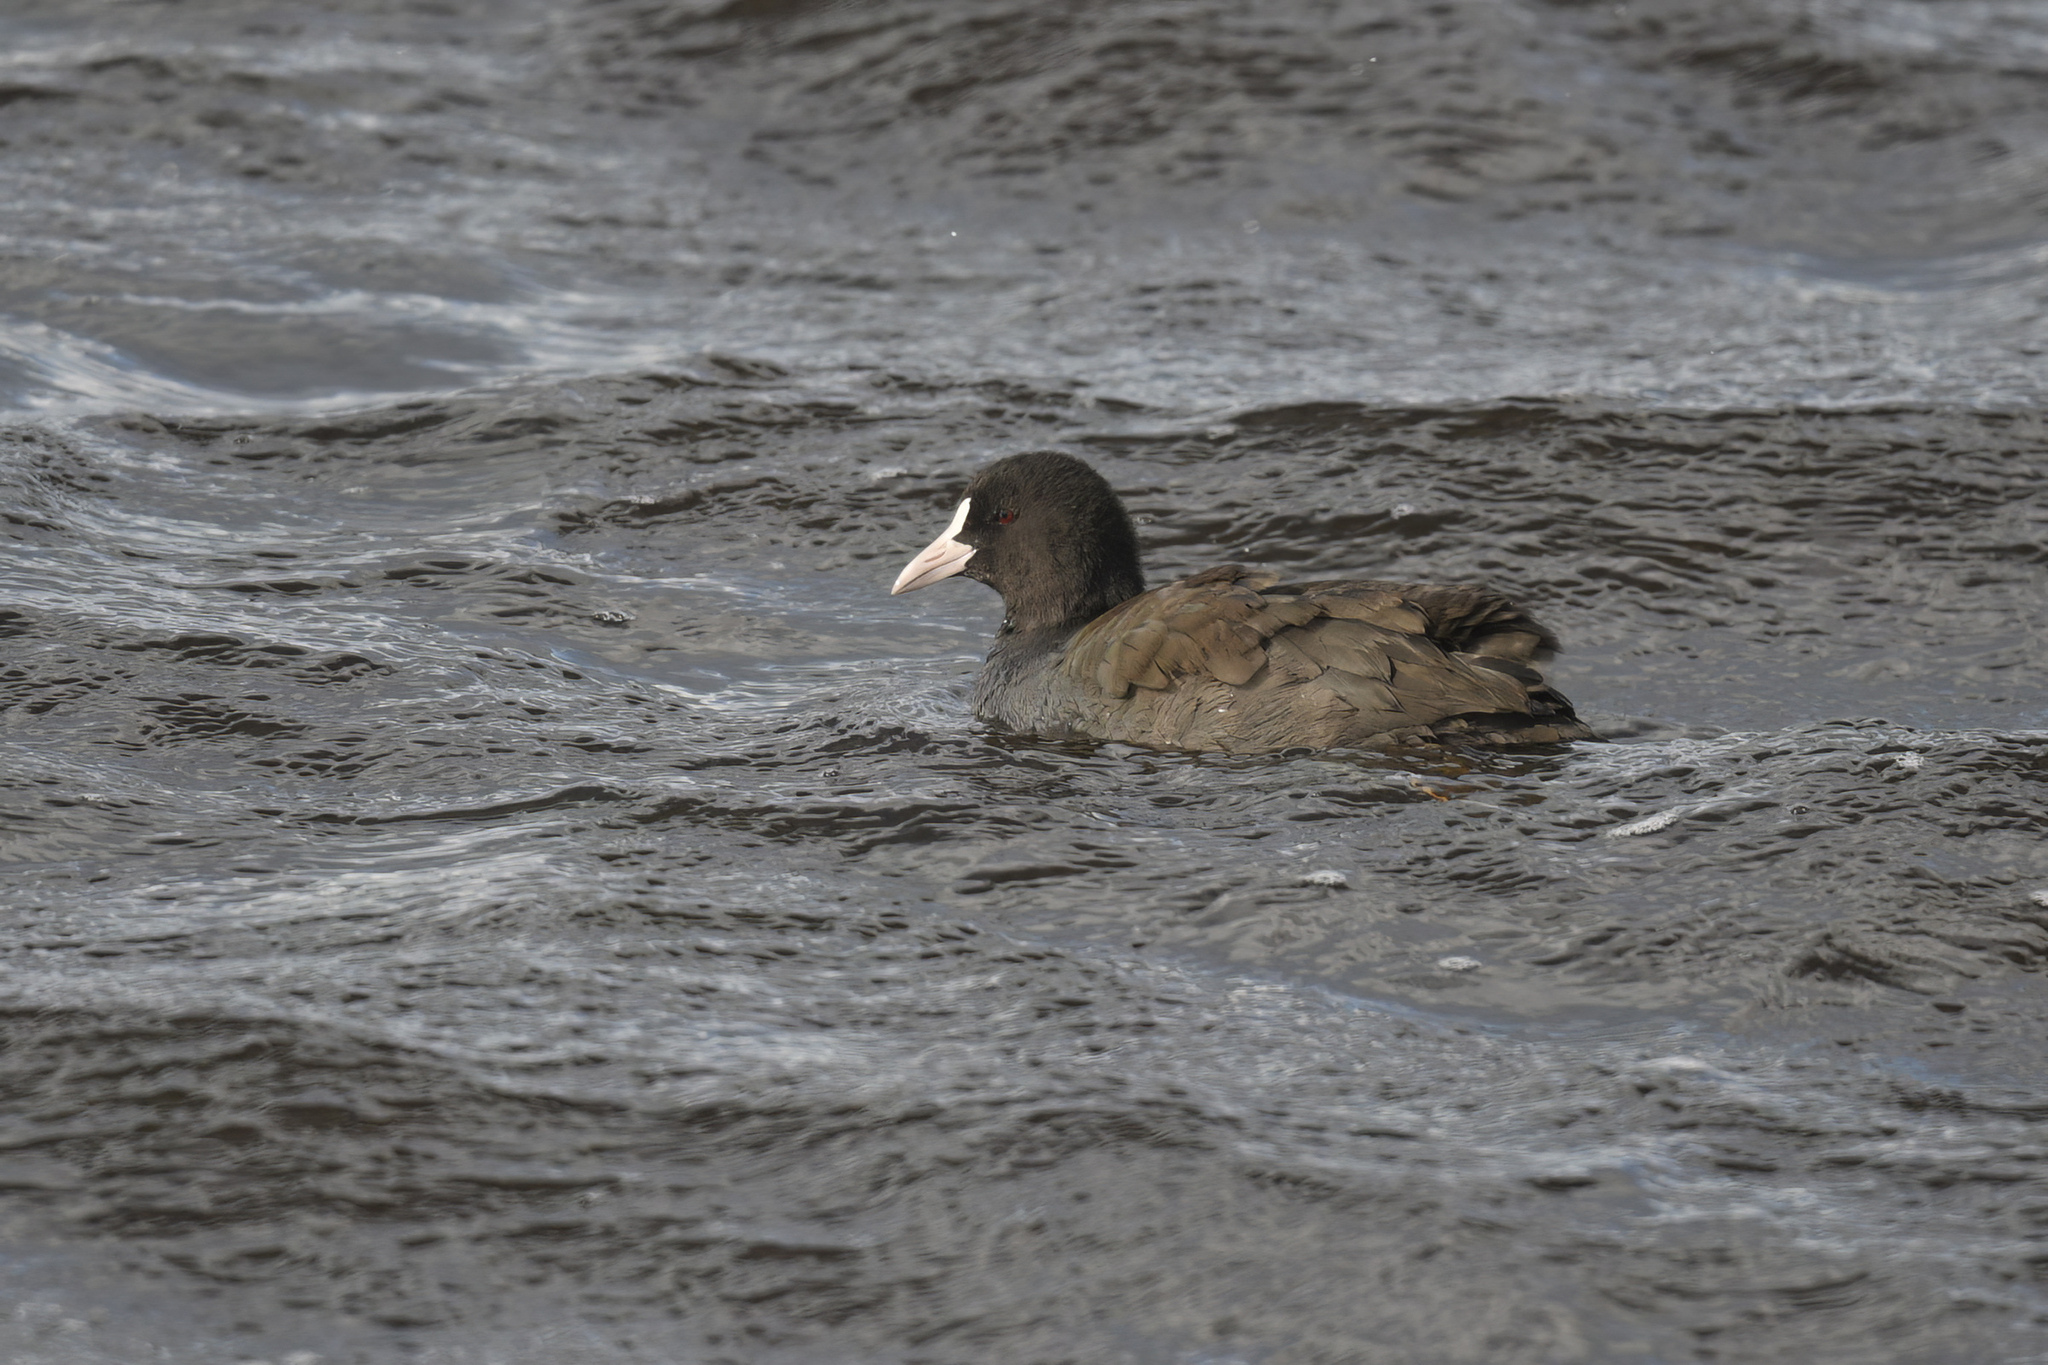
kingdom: Animalia
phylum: Chordata
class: Aves
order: Gruiformes
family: Rallidae
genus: Fulica
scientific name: Fulica atra
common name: Eurasian coot
